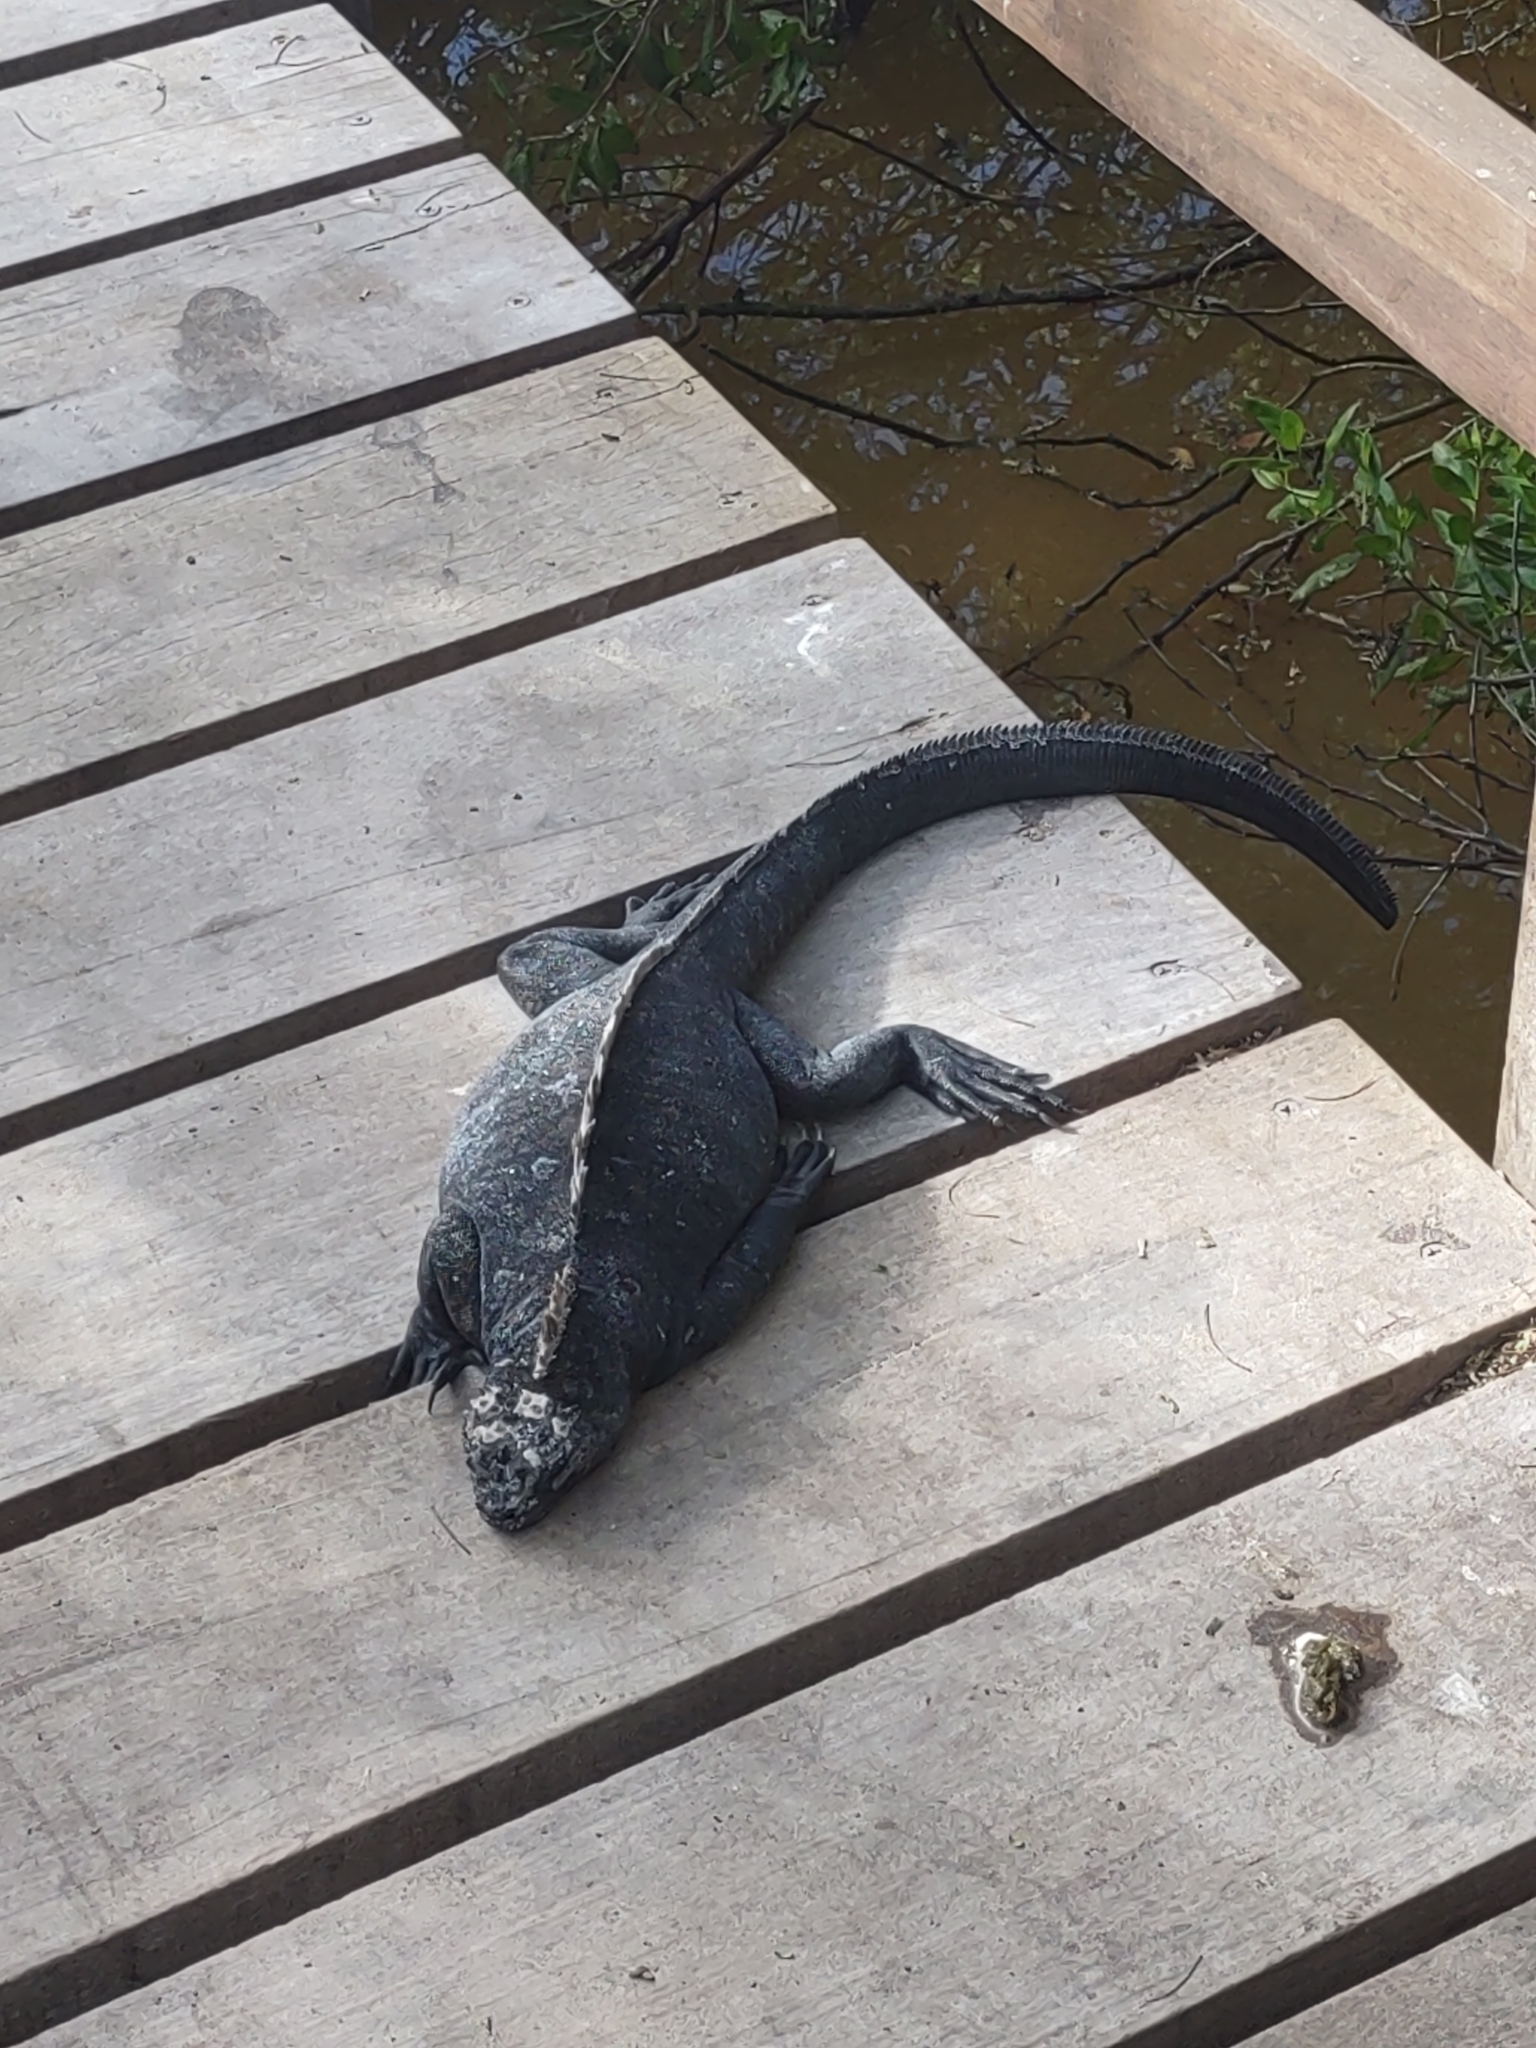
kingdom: Animalia
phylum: Chordata
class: Squamata
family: Iguanidae
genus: Amblyrhynchus
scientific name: Amblyrhynchus cristatus
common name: Marine iguana
